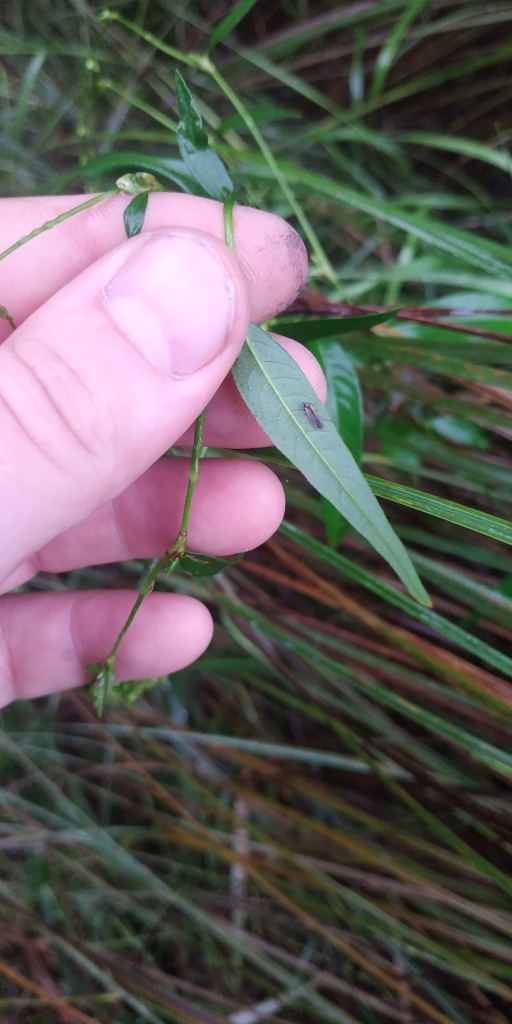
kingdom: Plantae
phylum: Tracheophyta
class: Magnoliopsida
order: Caryophyllales
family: Polygonaceae
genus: Persicaria
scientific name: Persicaria hydropiper
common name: Water-pepper
